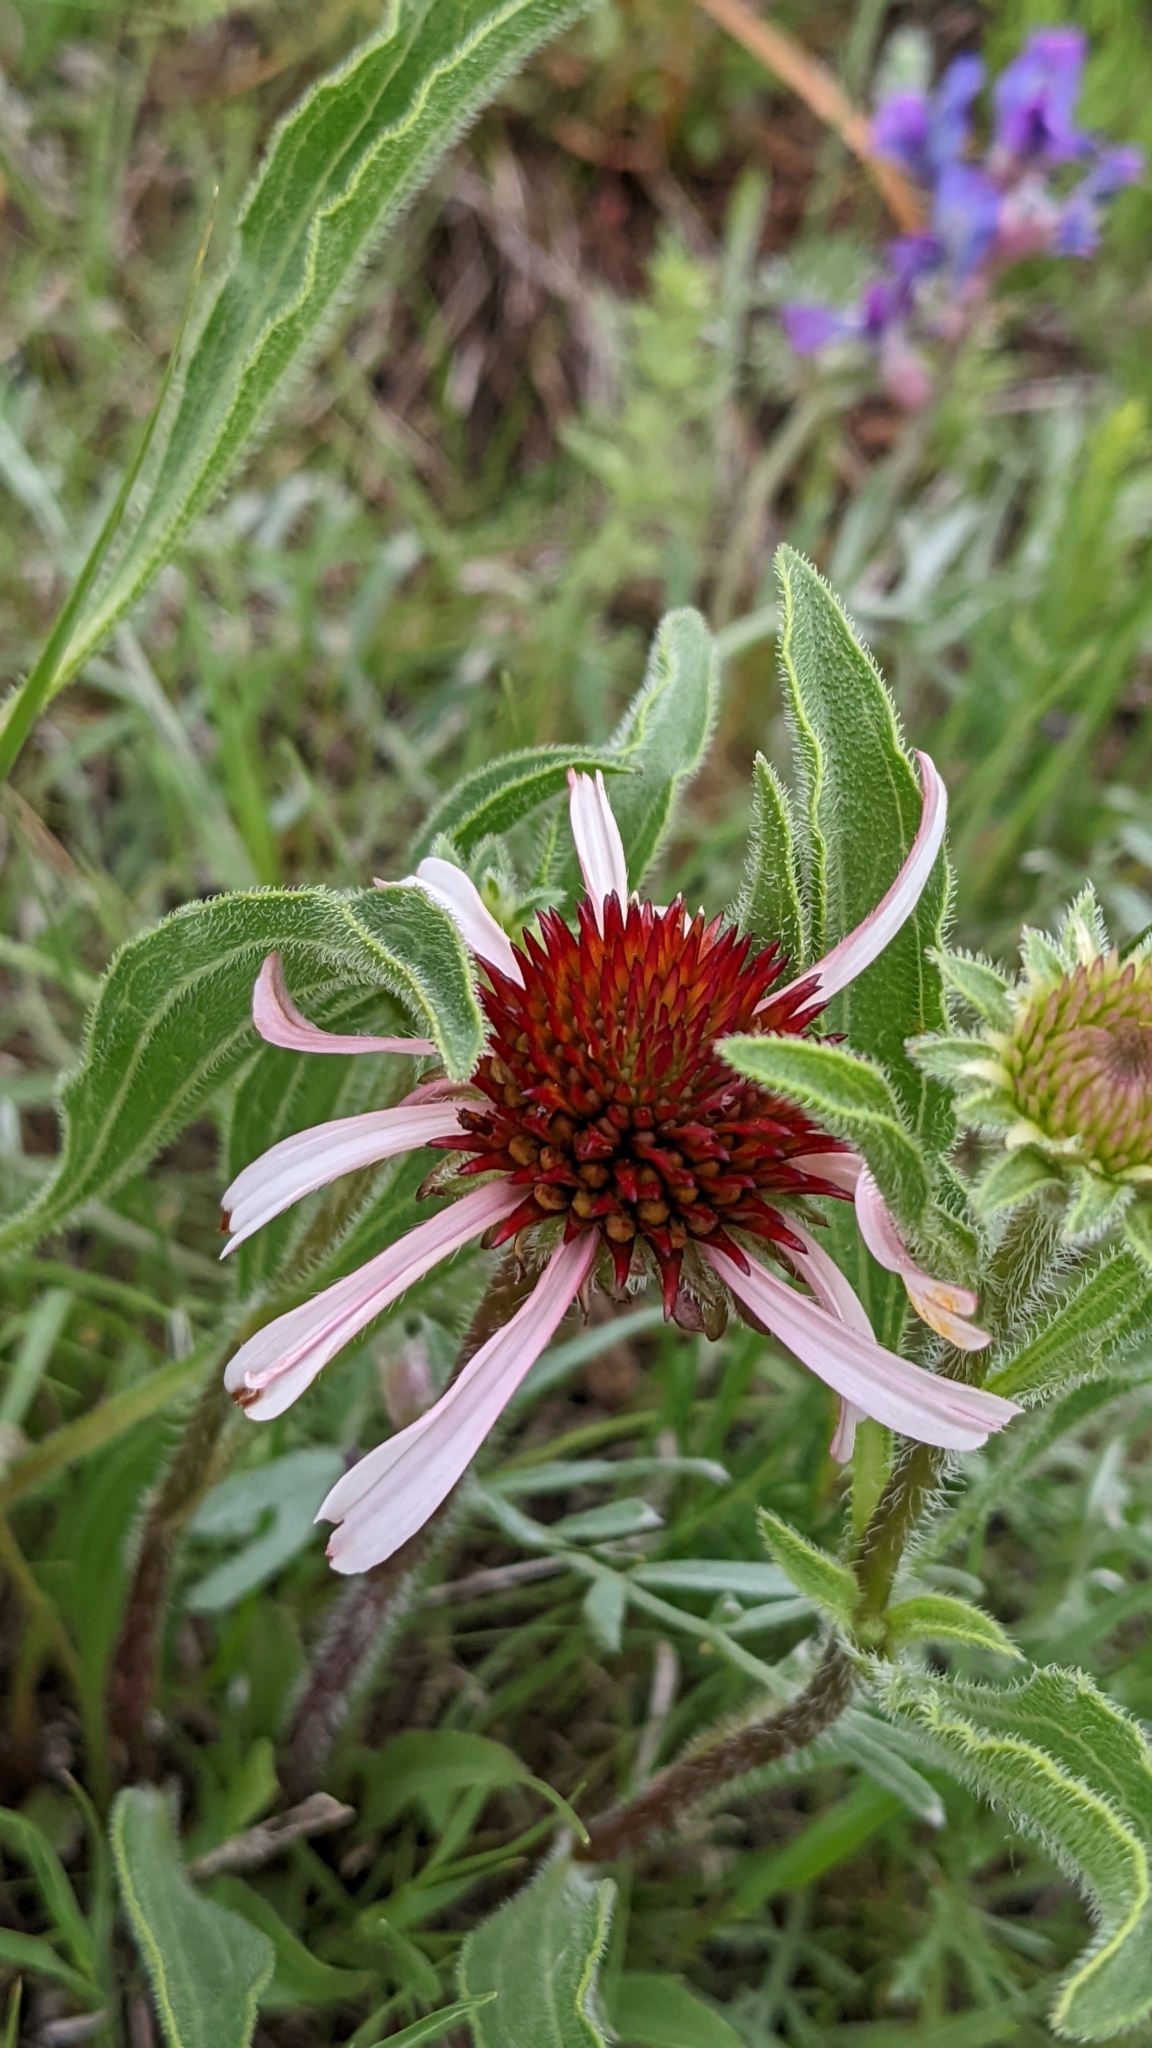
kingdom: Plantae
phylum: Tracheophyta
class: Magnoliopsida
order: Asterales
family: Asteraceae
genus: Echinacea
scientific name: Echinacea angustifolia
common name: Black-sampson echinacea
